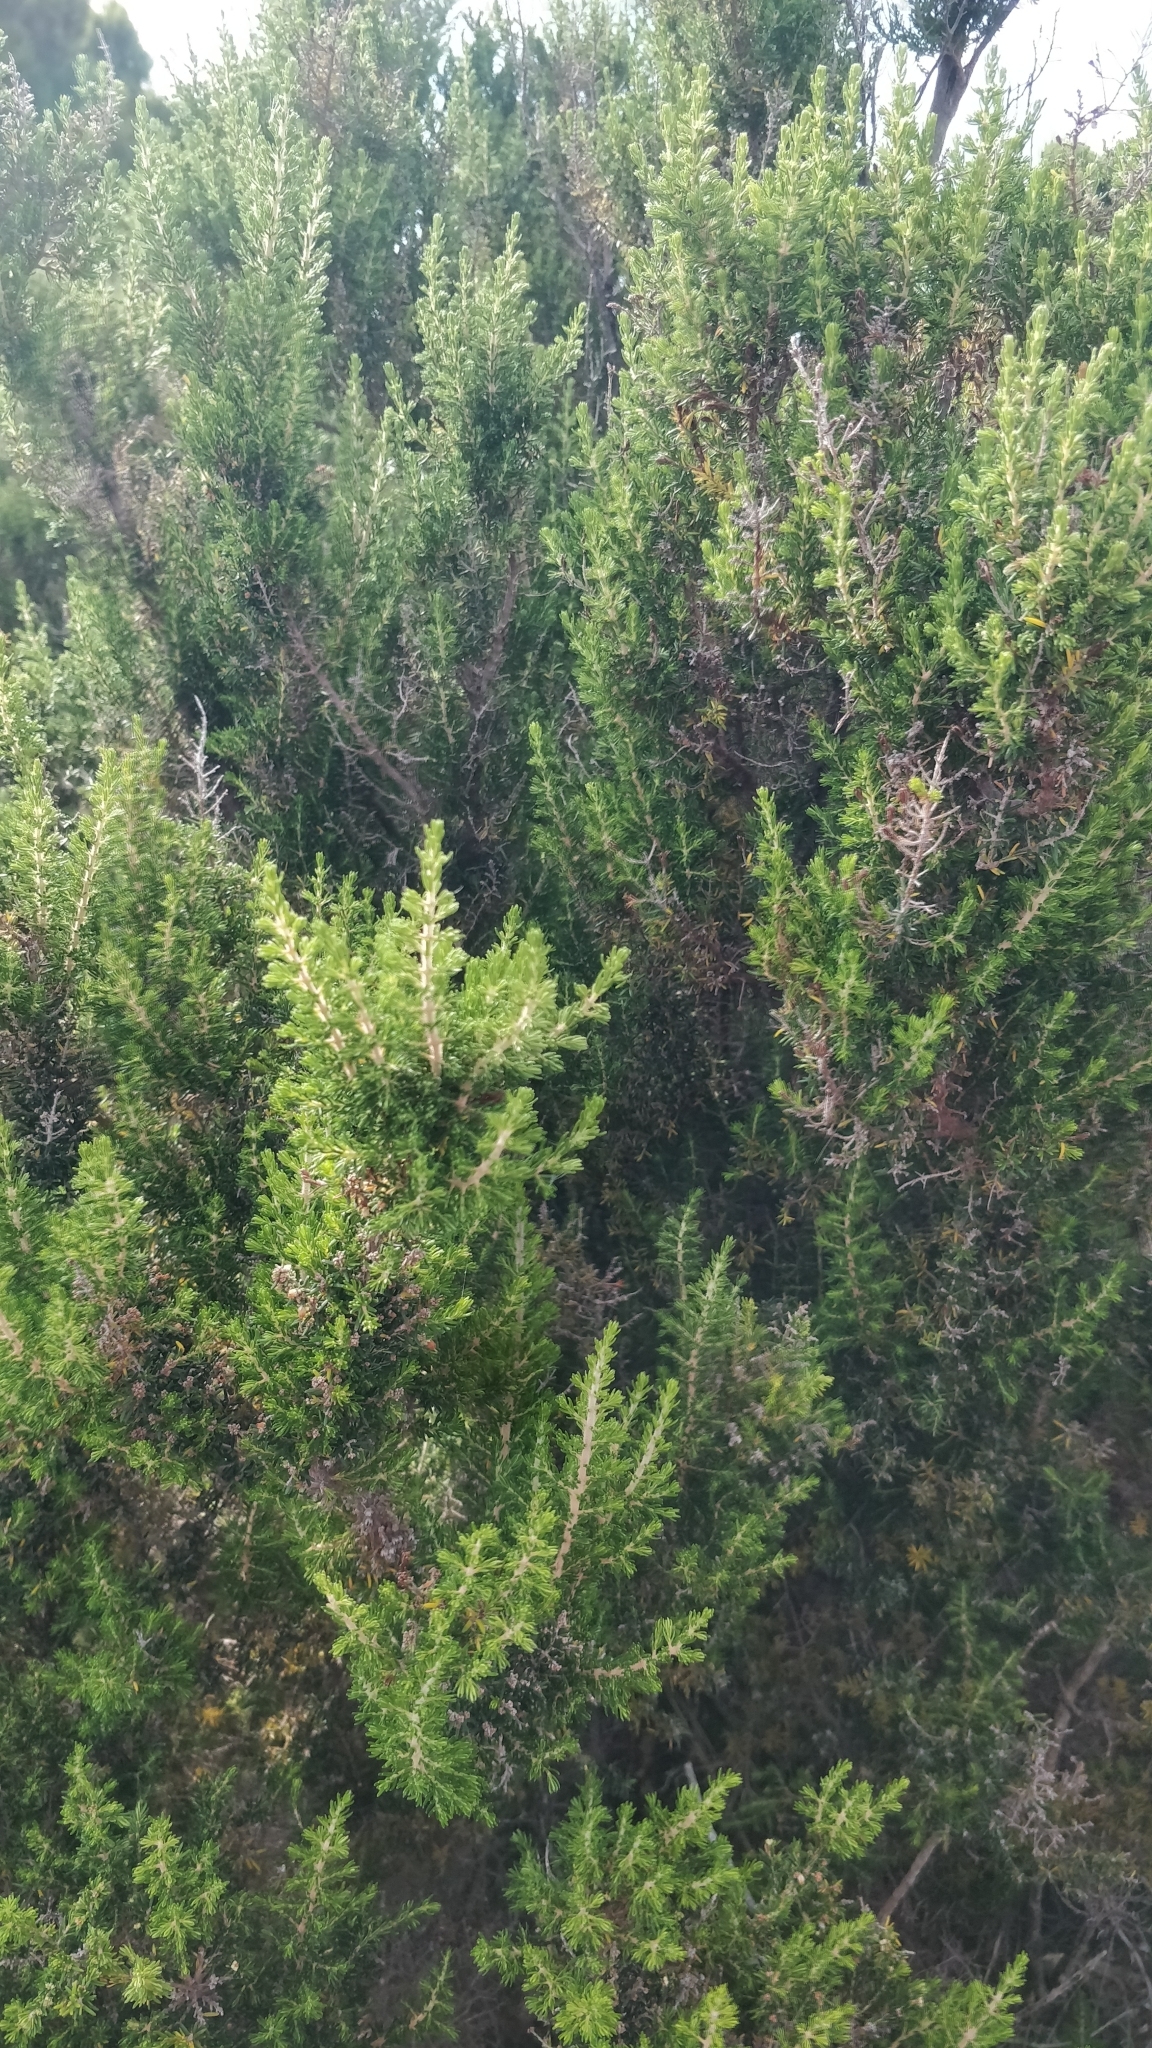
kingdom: Plantae
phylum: Tracheophyta
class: Magnoliopsida
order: Ericales
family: Ericaceae
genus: Erica
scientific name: Erica canariensis
